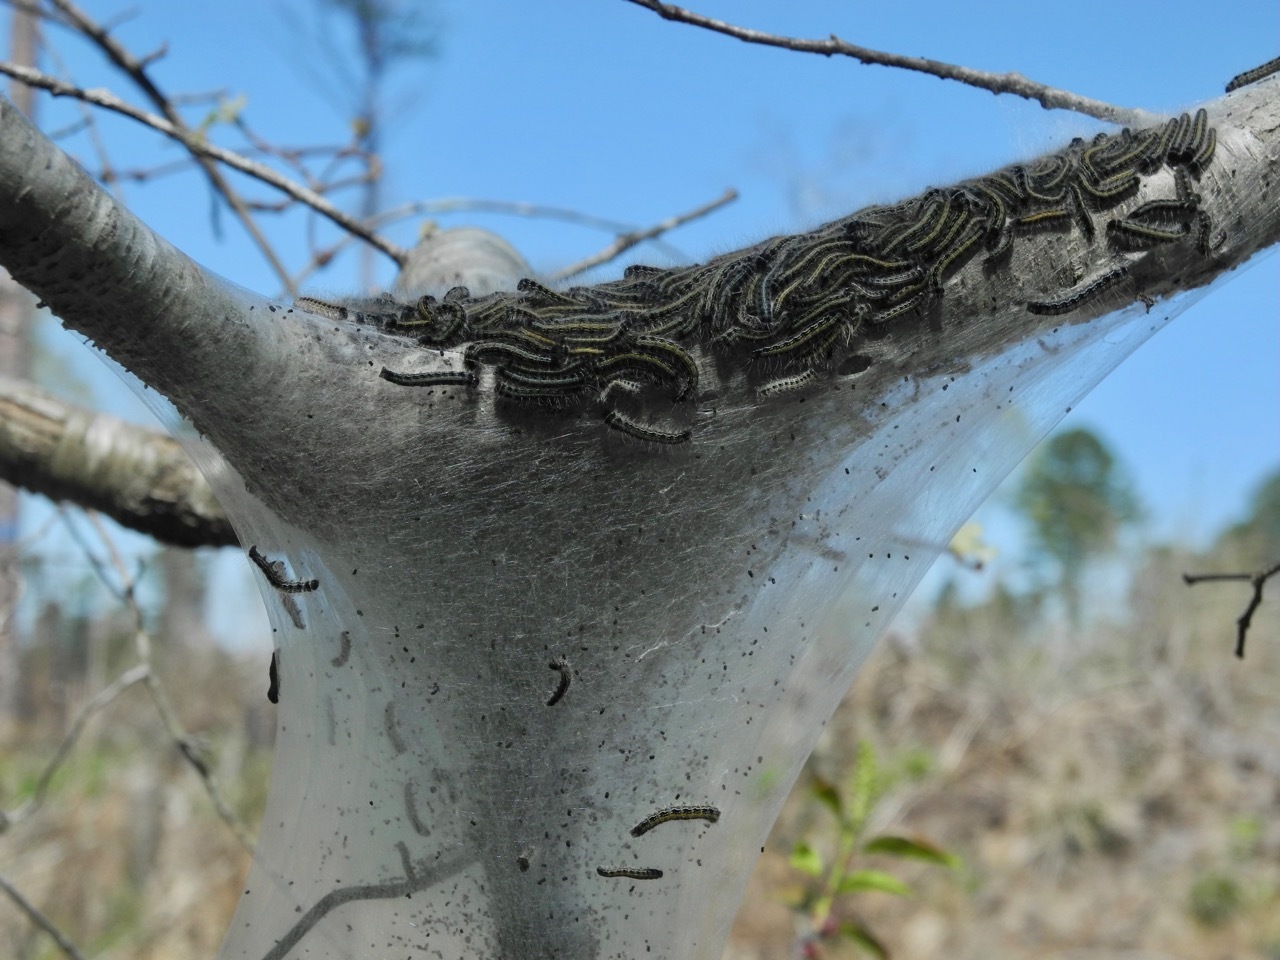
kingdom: Animalia
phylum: Arthropoda
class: Insecta
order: Lepidoptera
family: Lasiocampidae
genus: Malacosoma
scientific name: Malacosoma americana
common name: Eastern tent caterpillar moth
